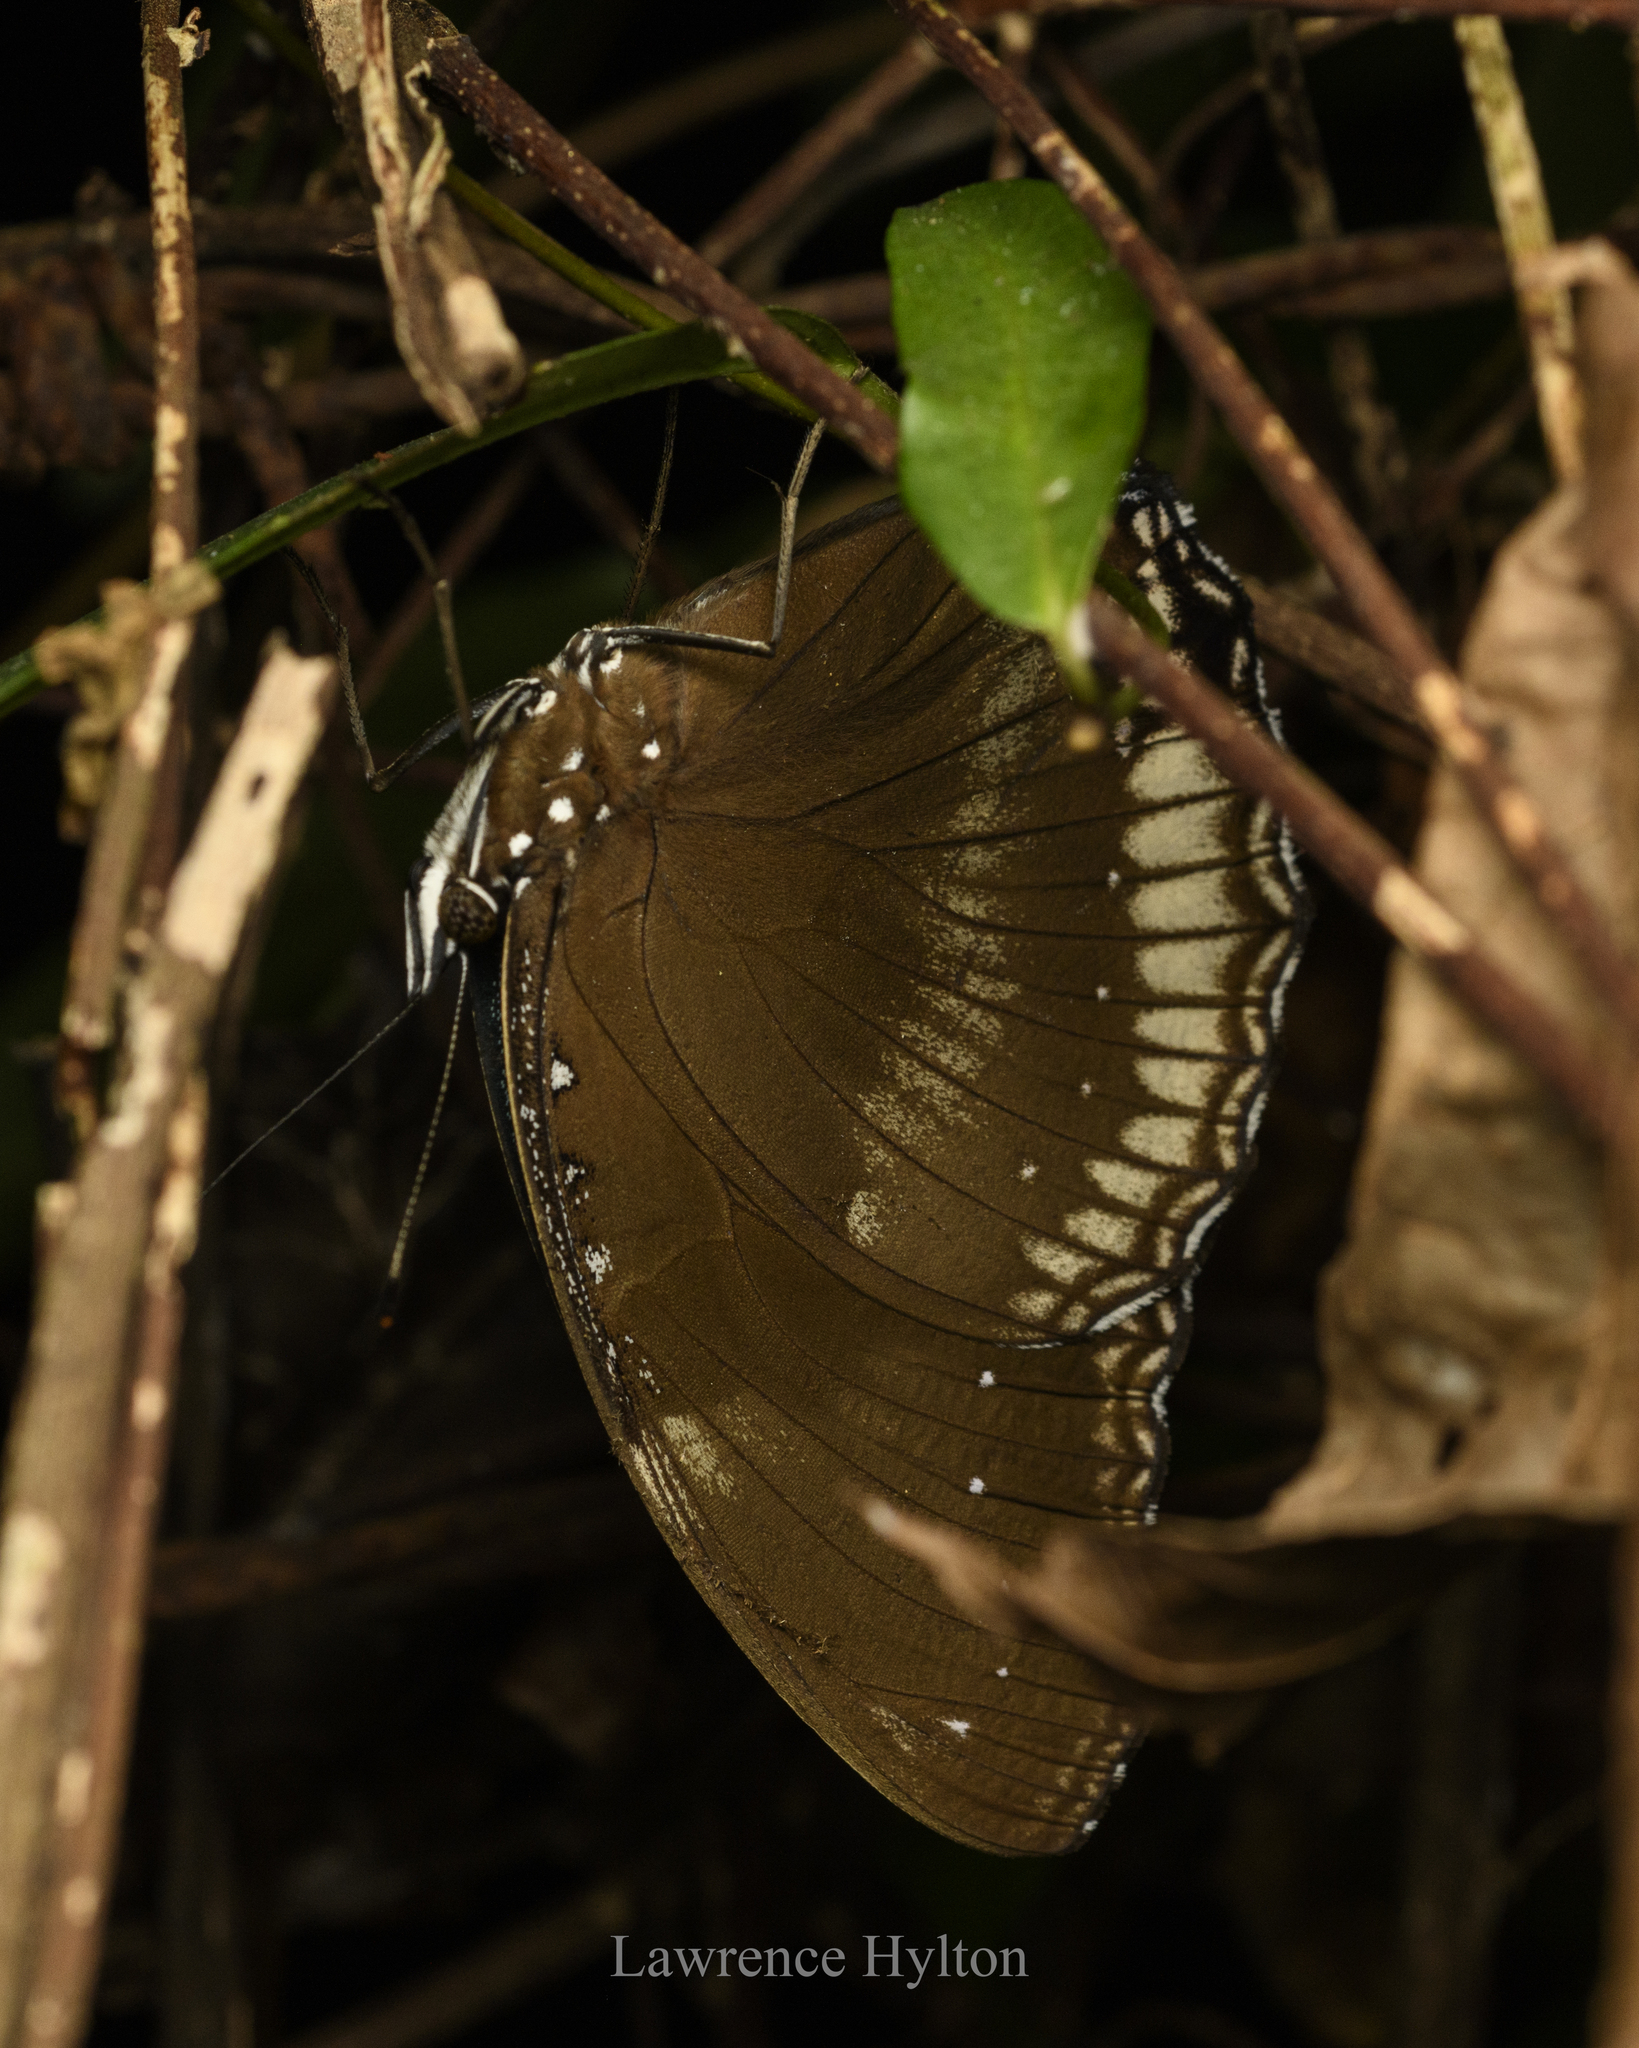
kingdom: Animalia
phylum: Arthropoda
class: Insecta
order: Lepidoptera
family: Nymphalidae
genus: Hypolimnas
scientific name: Hypolimnas bolina
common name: Great eggfly
